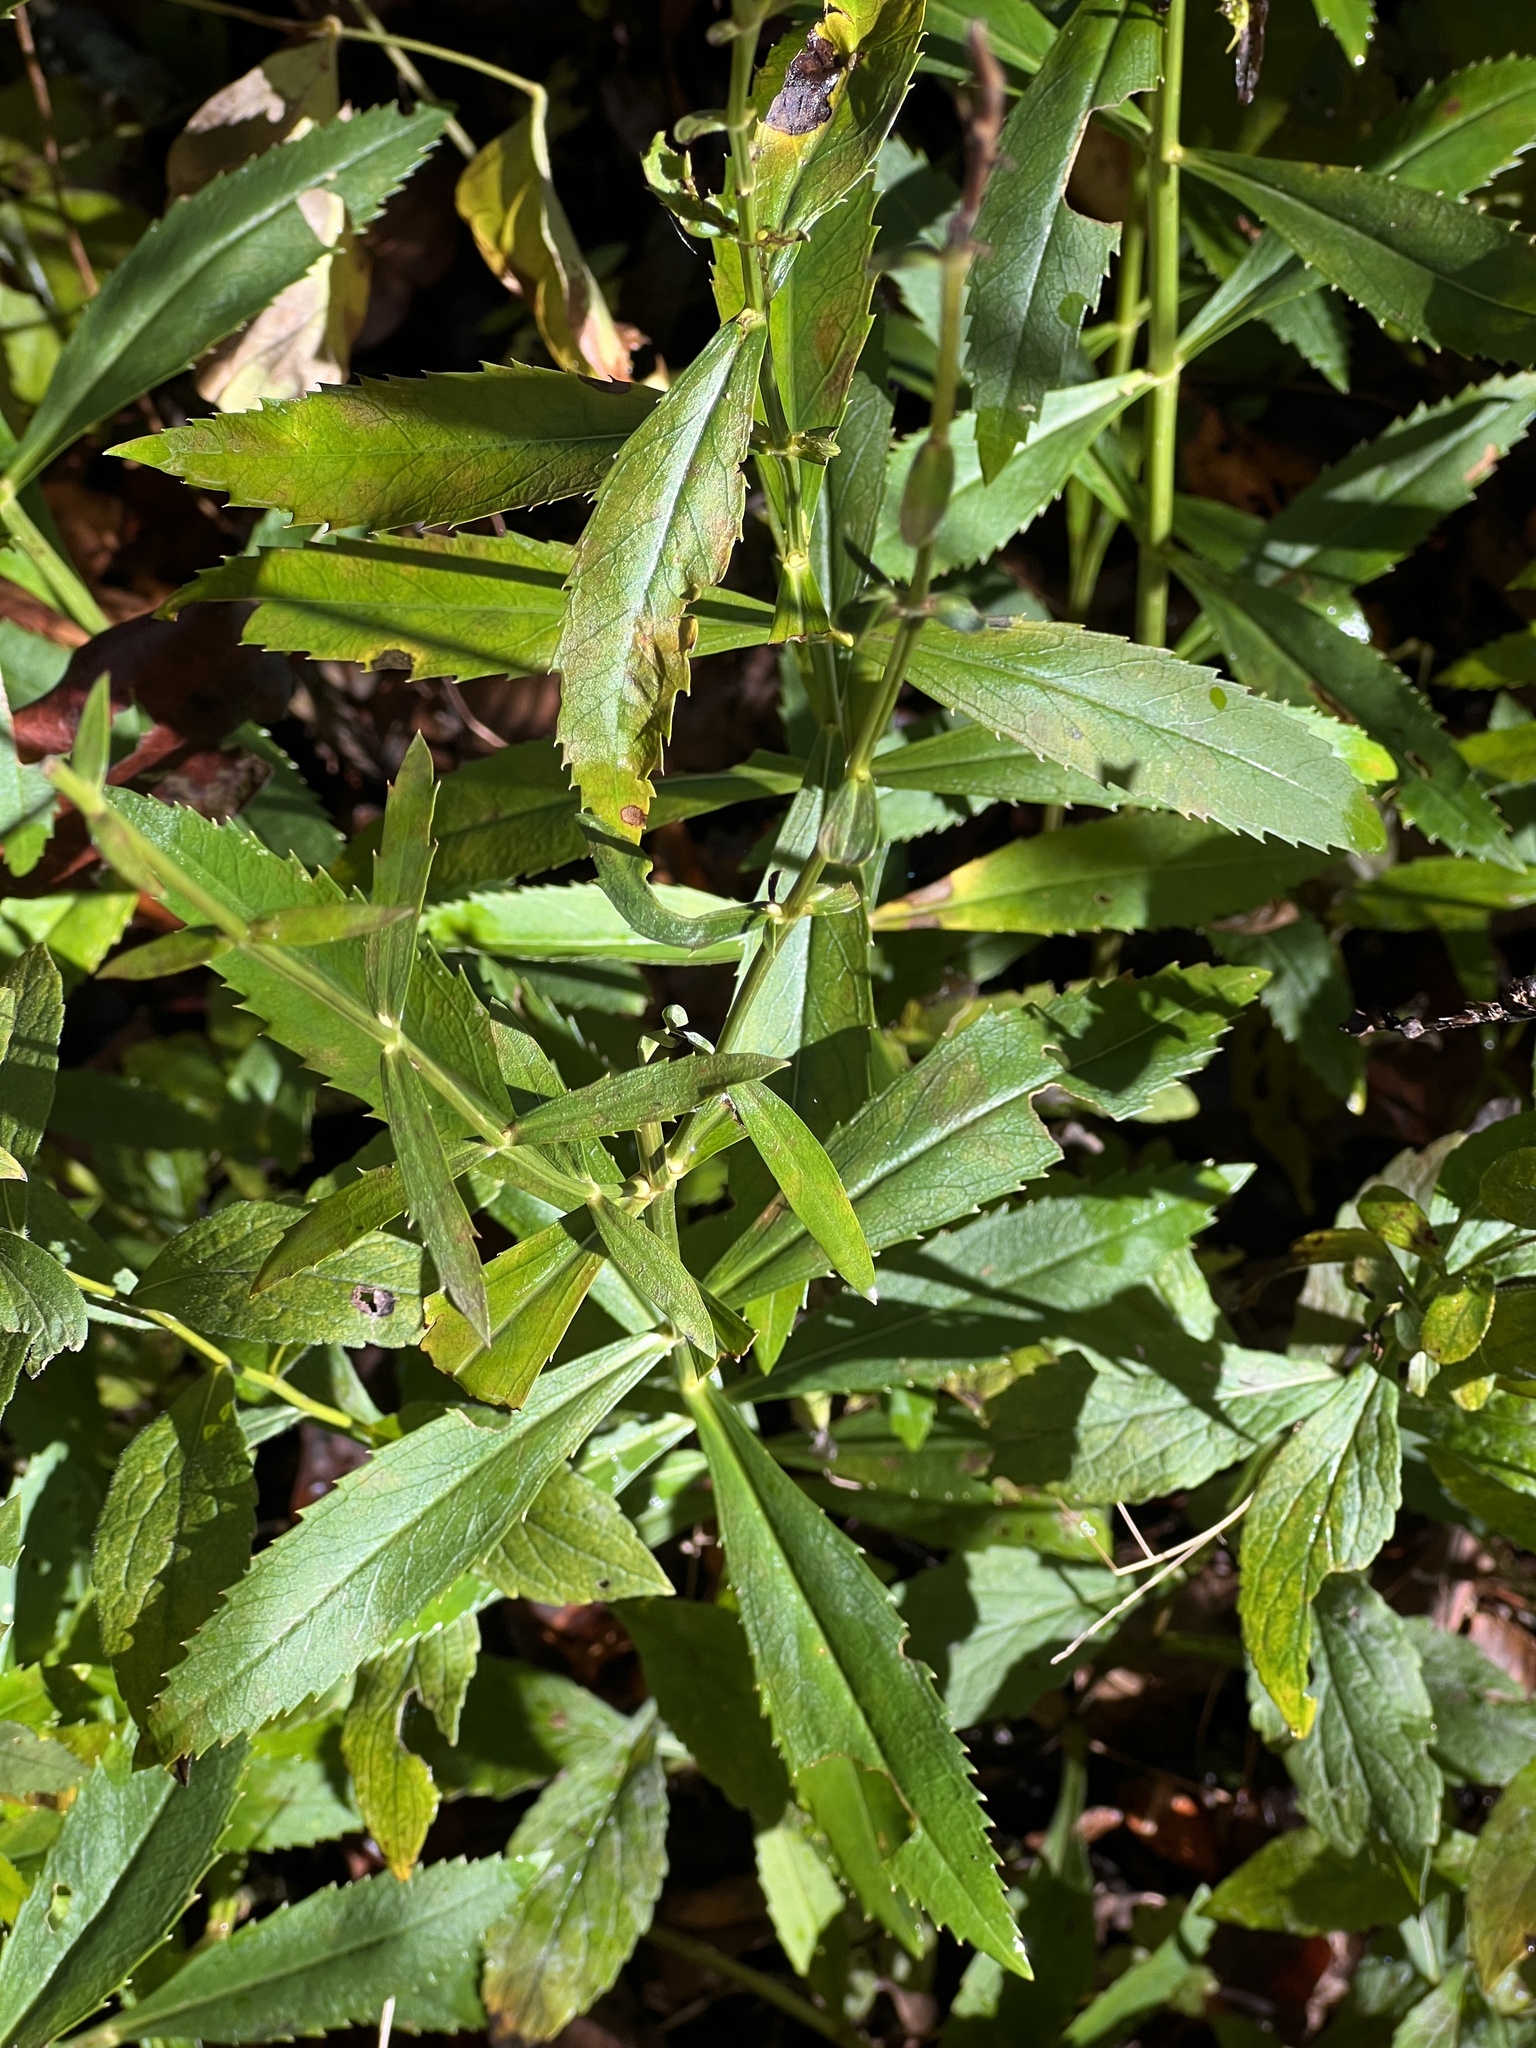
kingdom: Plantae
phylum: Tracheophyta
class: Magnoliopsida
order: Lamiales
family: Lamiaceae
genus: Physostegia
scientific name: Physostegia virginiana
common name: Obedient-plant
